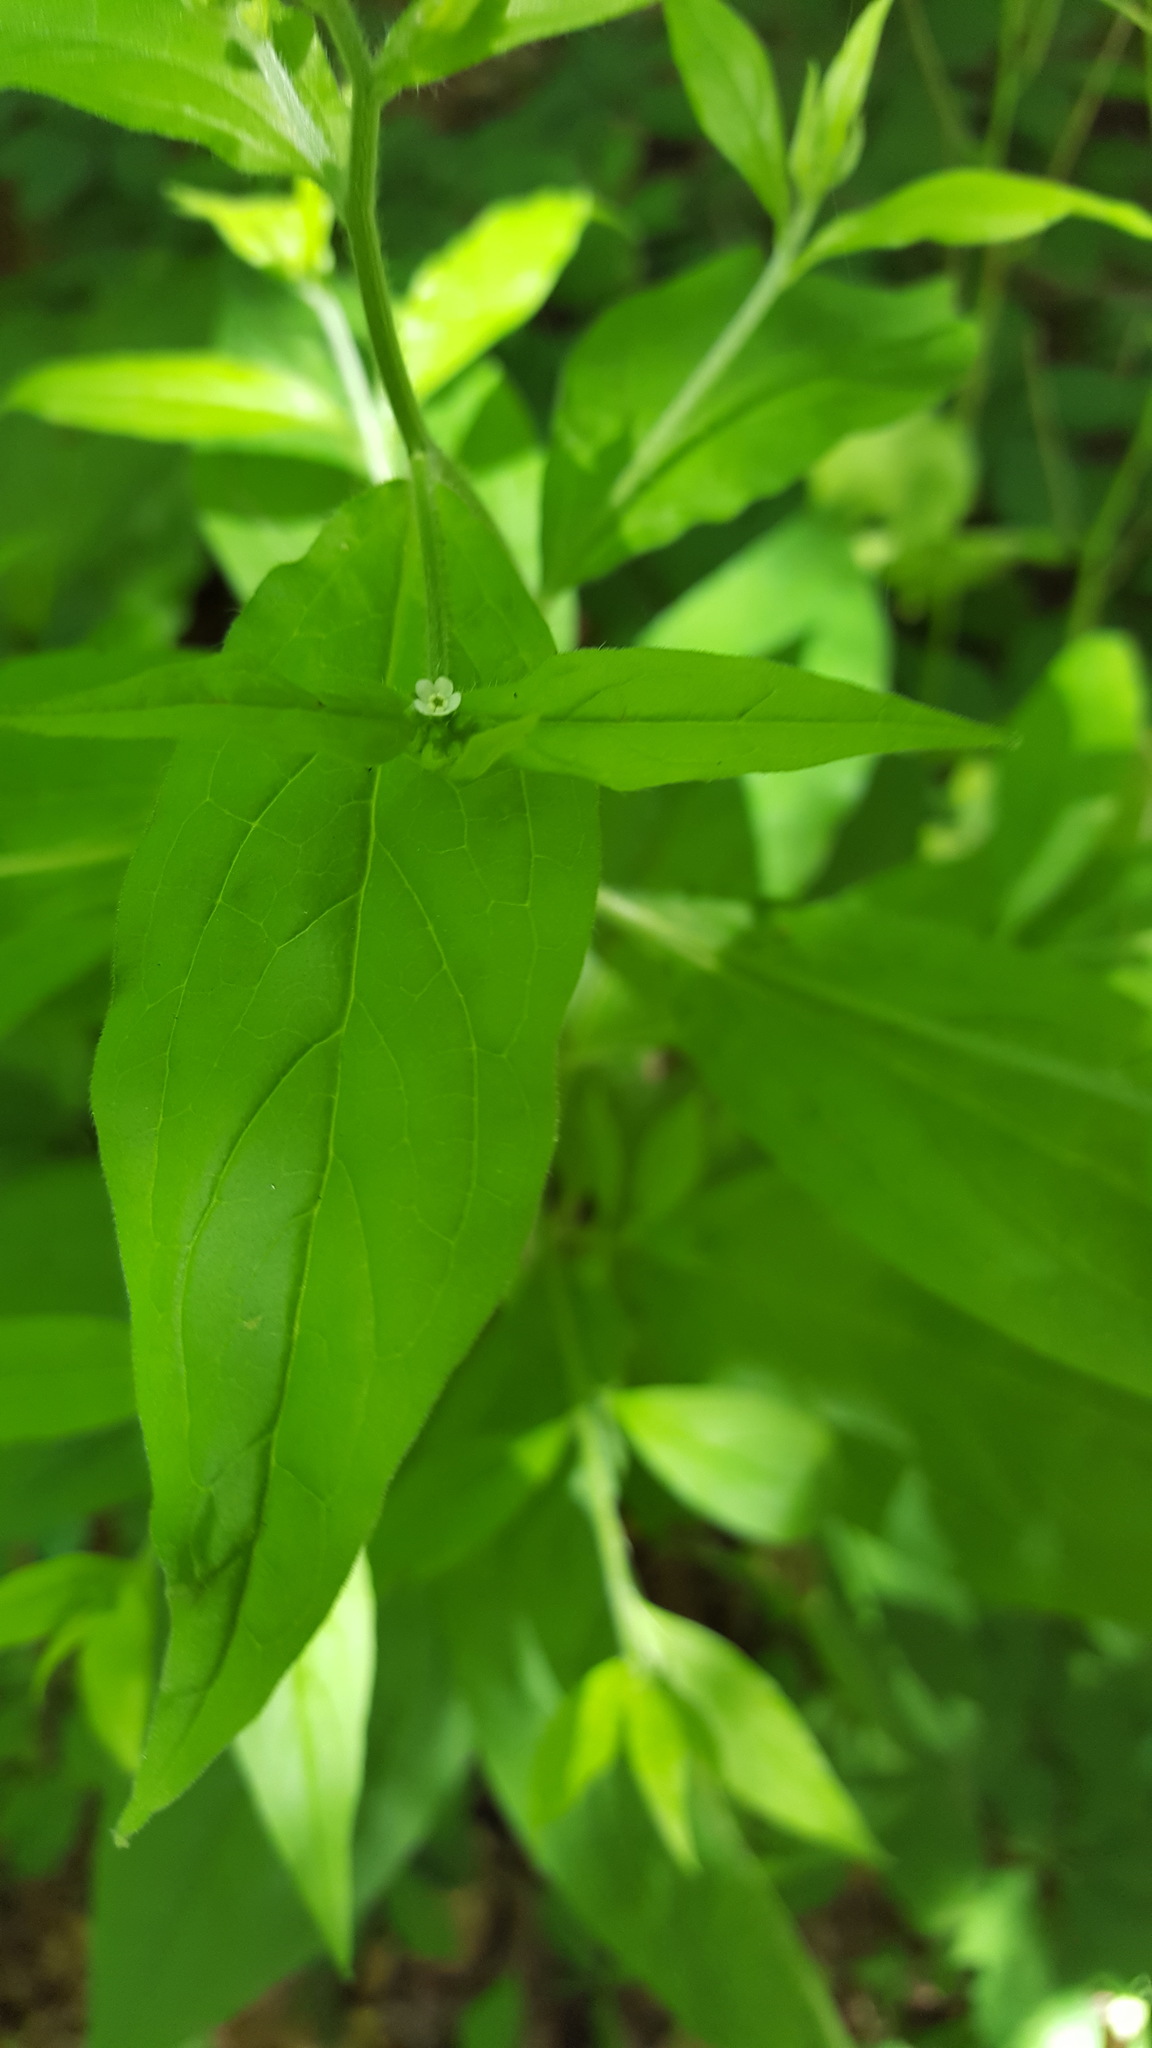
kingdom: Plantae
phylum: Tracheophyta
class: Magnoliopsida
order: Boraginales
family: Boraginaceae
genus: Hackelia
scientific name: Hackelia virginiana
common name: Beggar's-lice
